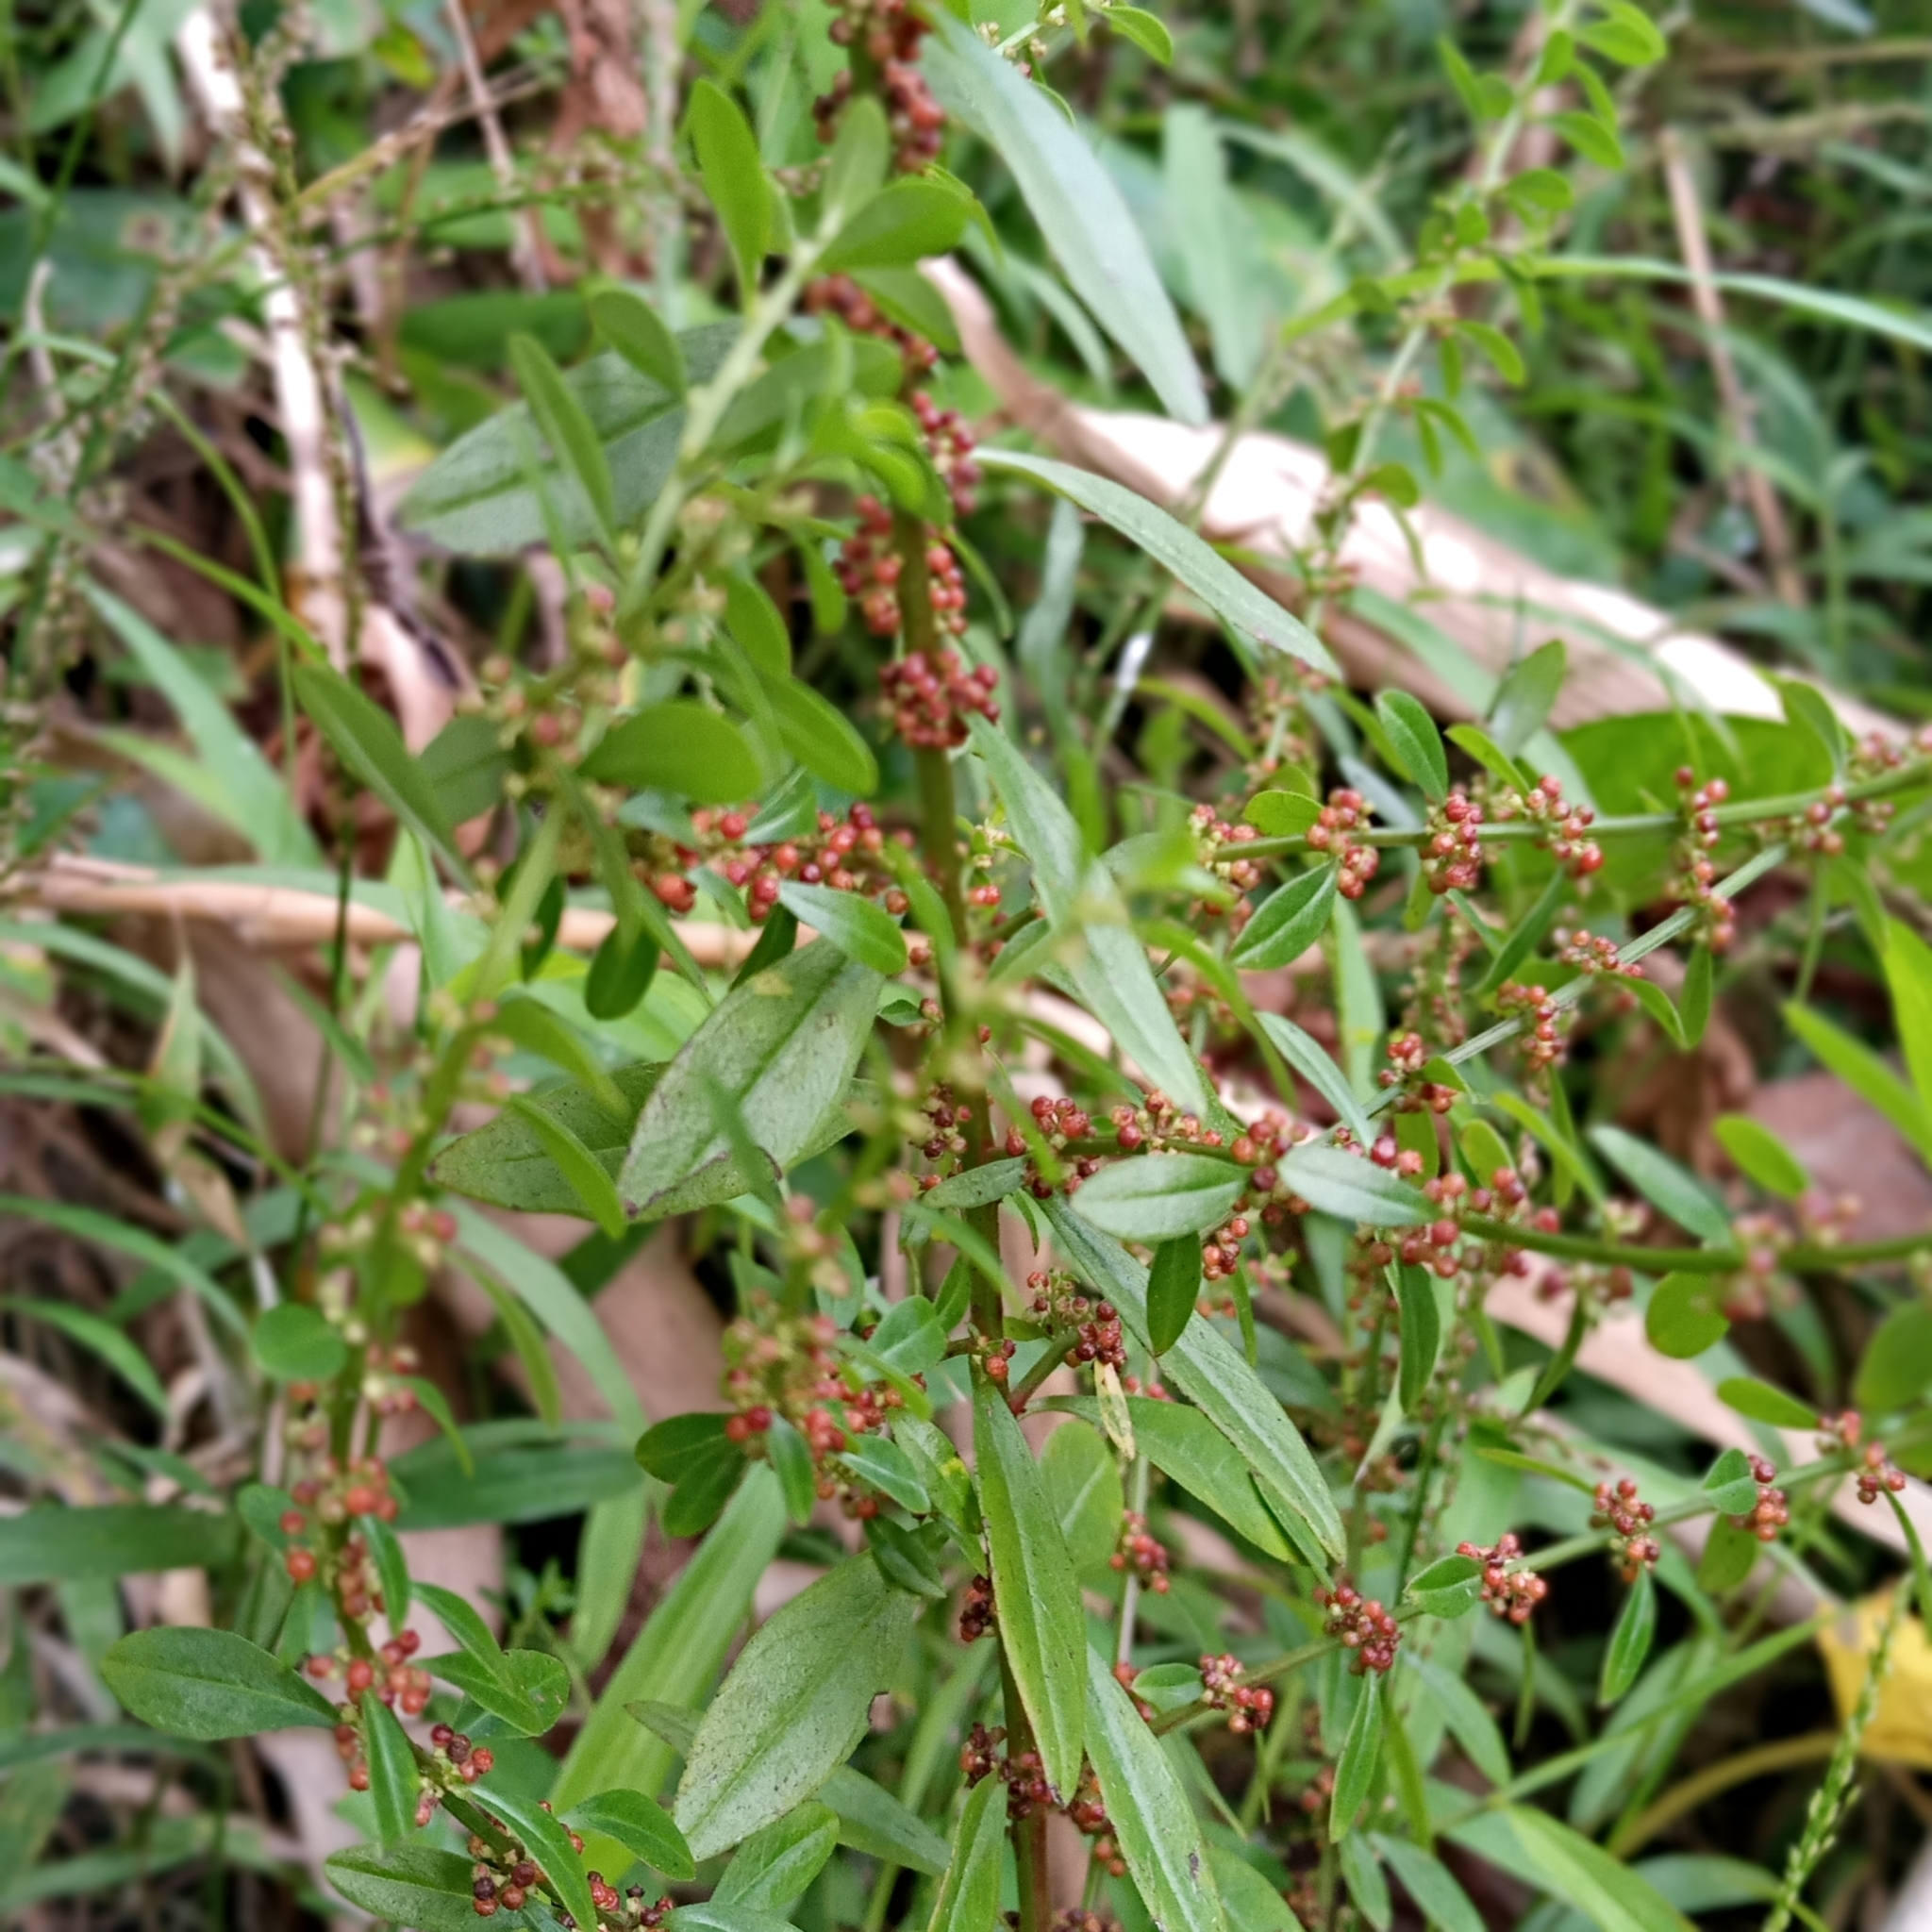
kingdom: Plantae
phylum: Tracheophyta
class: Magnoliopsida
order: Myrtales
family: Lythraceae
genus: Ammannia
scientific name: Ammannia baccifera
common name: Blistering ammania
